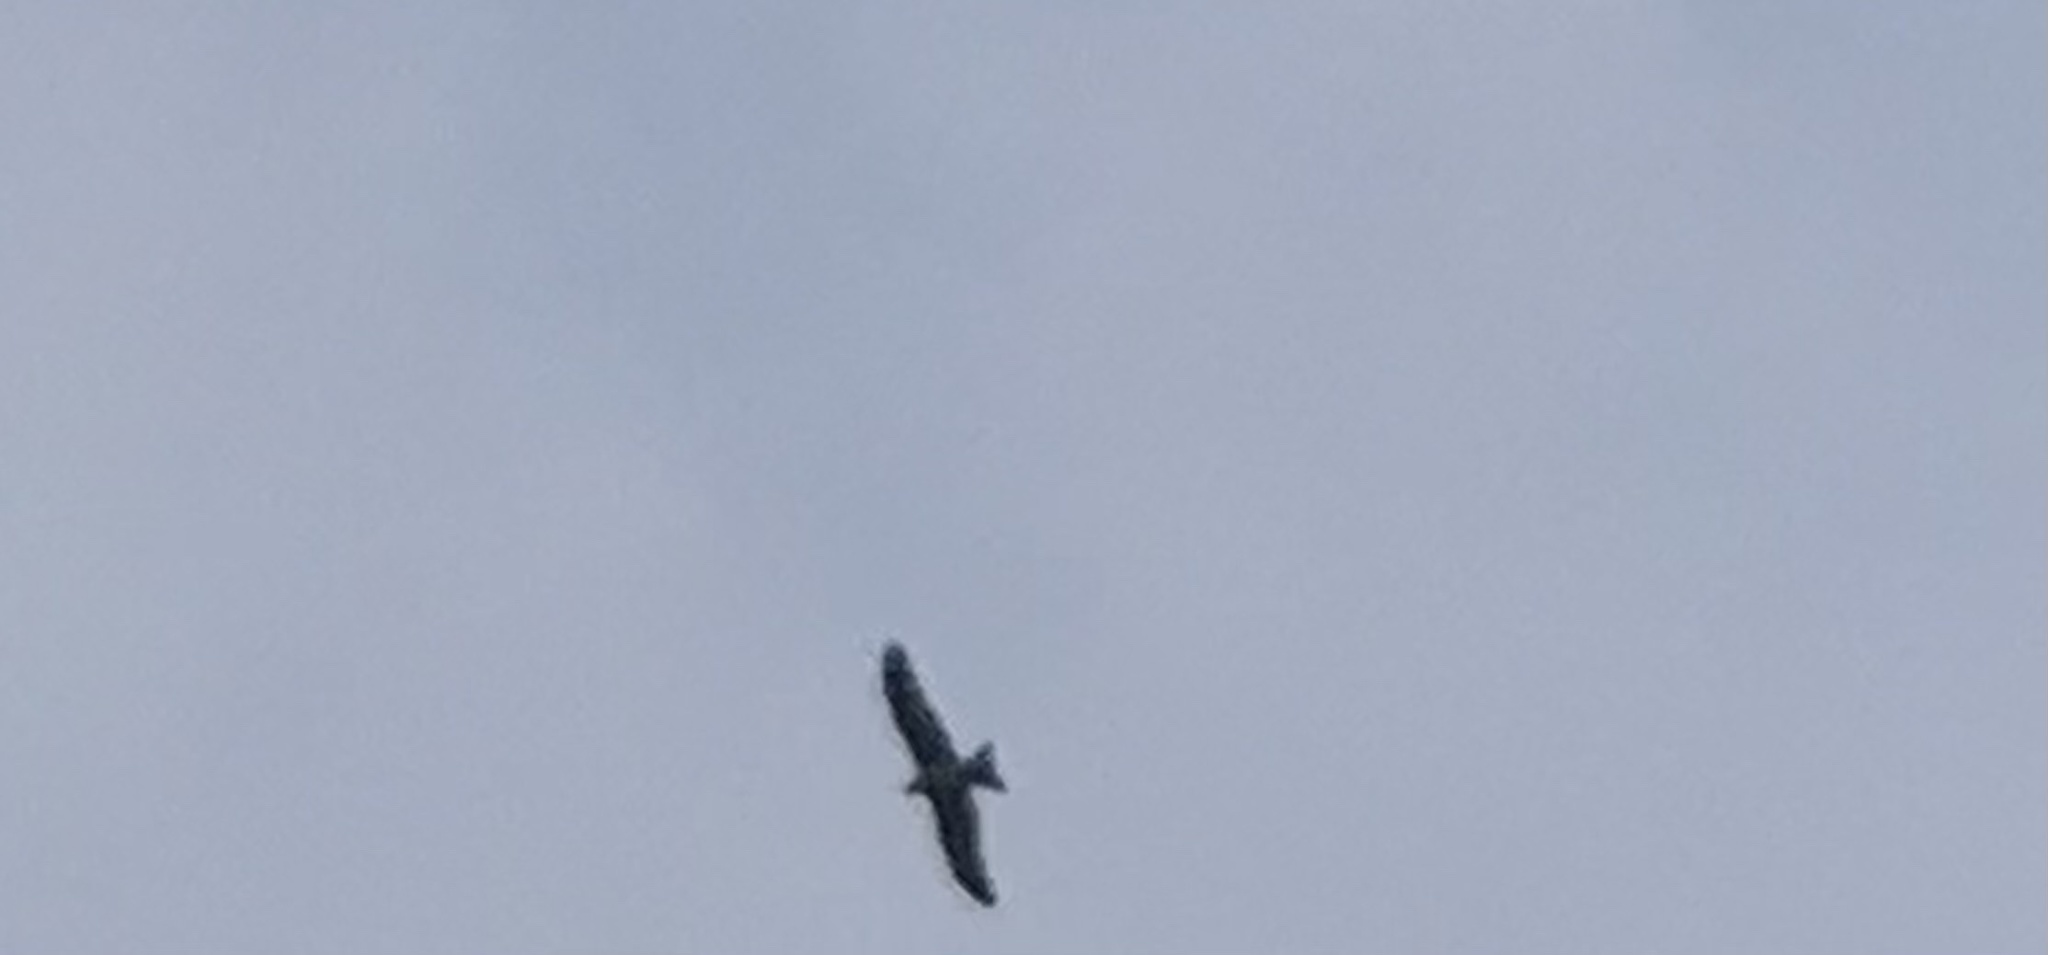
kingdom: Animalia
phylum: Chordata
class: Aves
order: Accipitriformes
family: Accipitridae
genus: Milvus
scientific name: Milvus migrans
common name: Black kite
